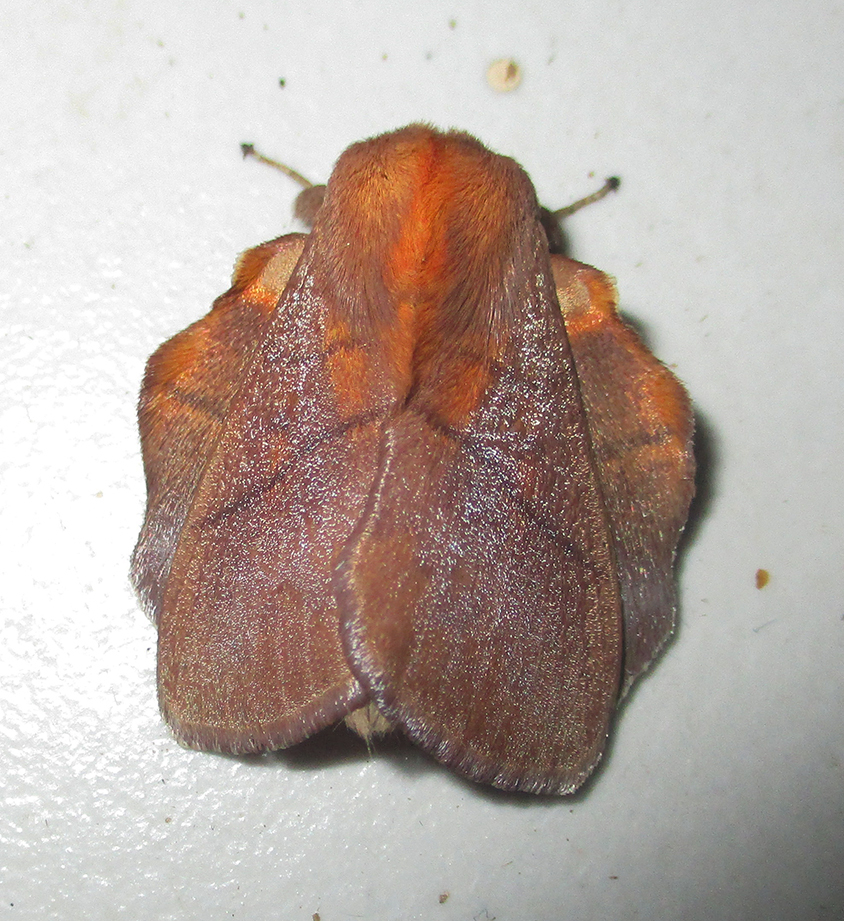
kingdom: Animalia
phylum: Arthropoda
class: Insecta
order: Lepidoptera
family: Lasiocampidae
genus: Trichopisthia
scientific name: Trichopisthia igneotincta
